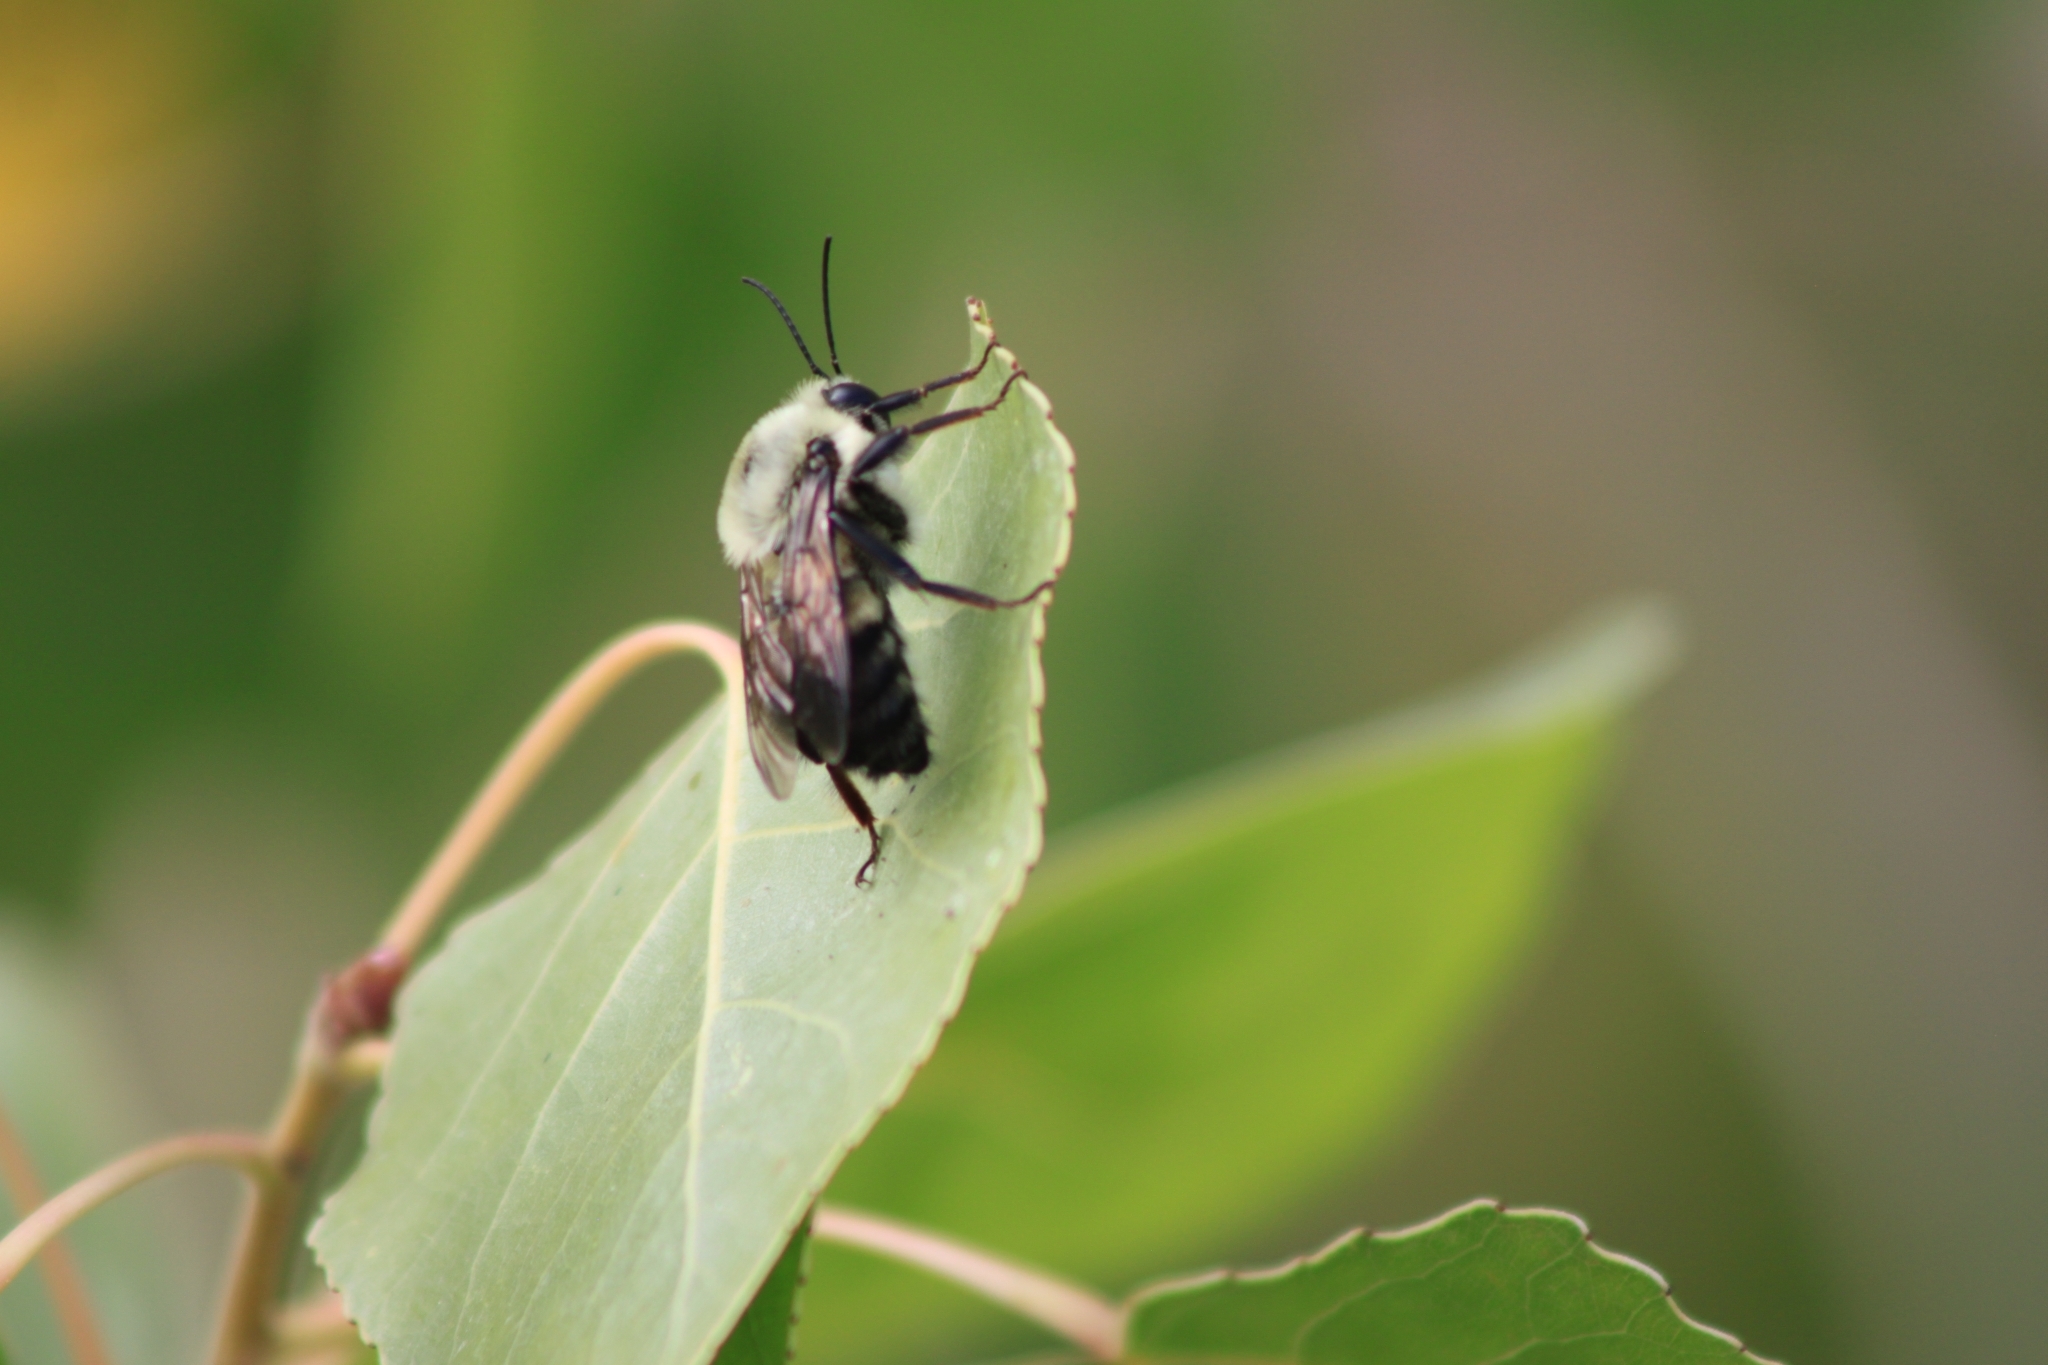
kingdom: Animalia
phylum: Arthropoda
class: Insecta
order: Hymenoptera
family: Apidae
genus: Bombus
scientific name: Bombus griseocollis
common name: Brown-belted bumble bee
